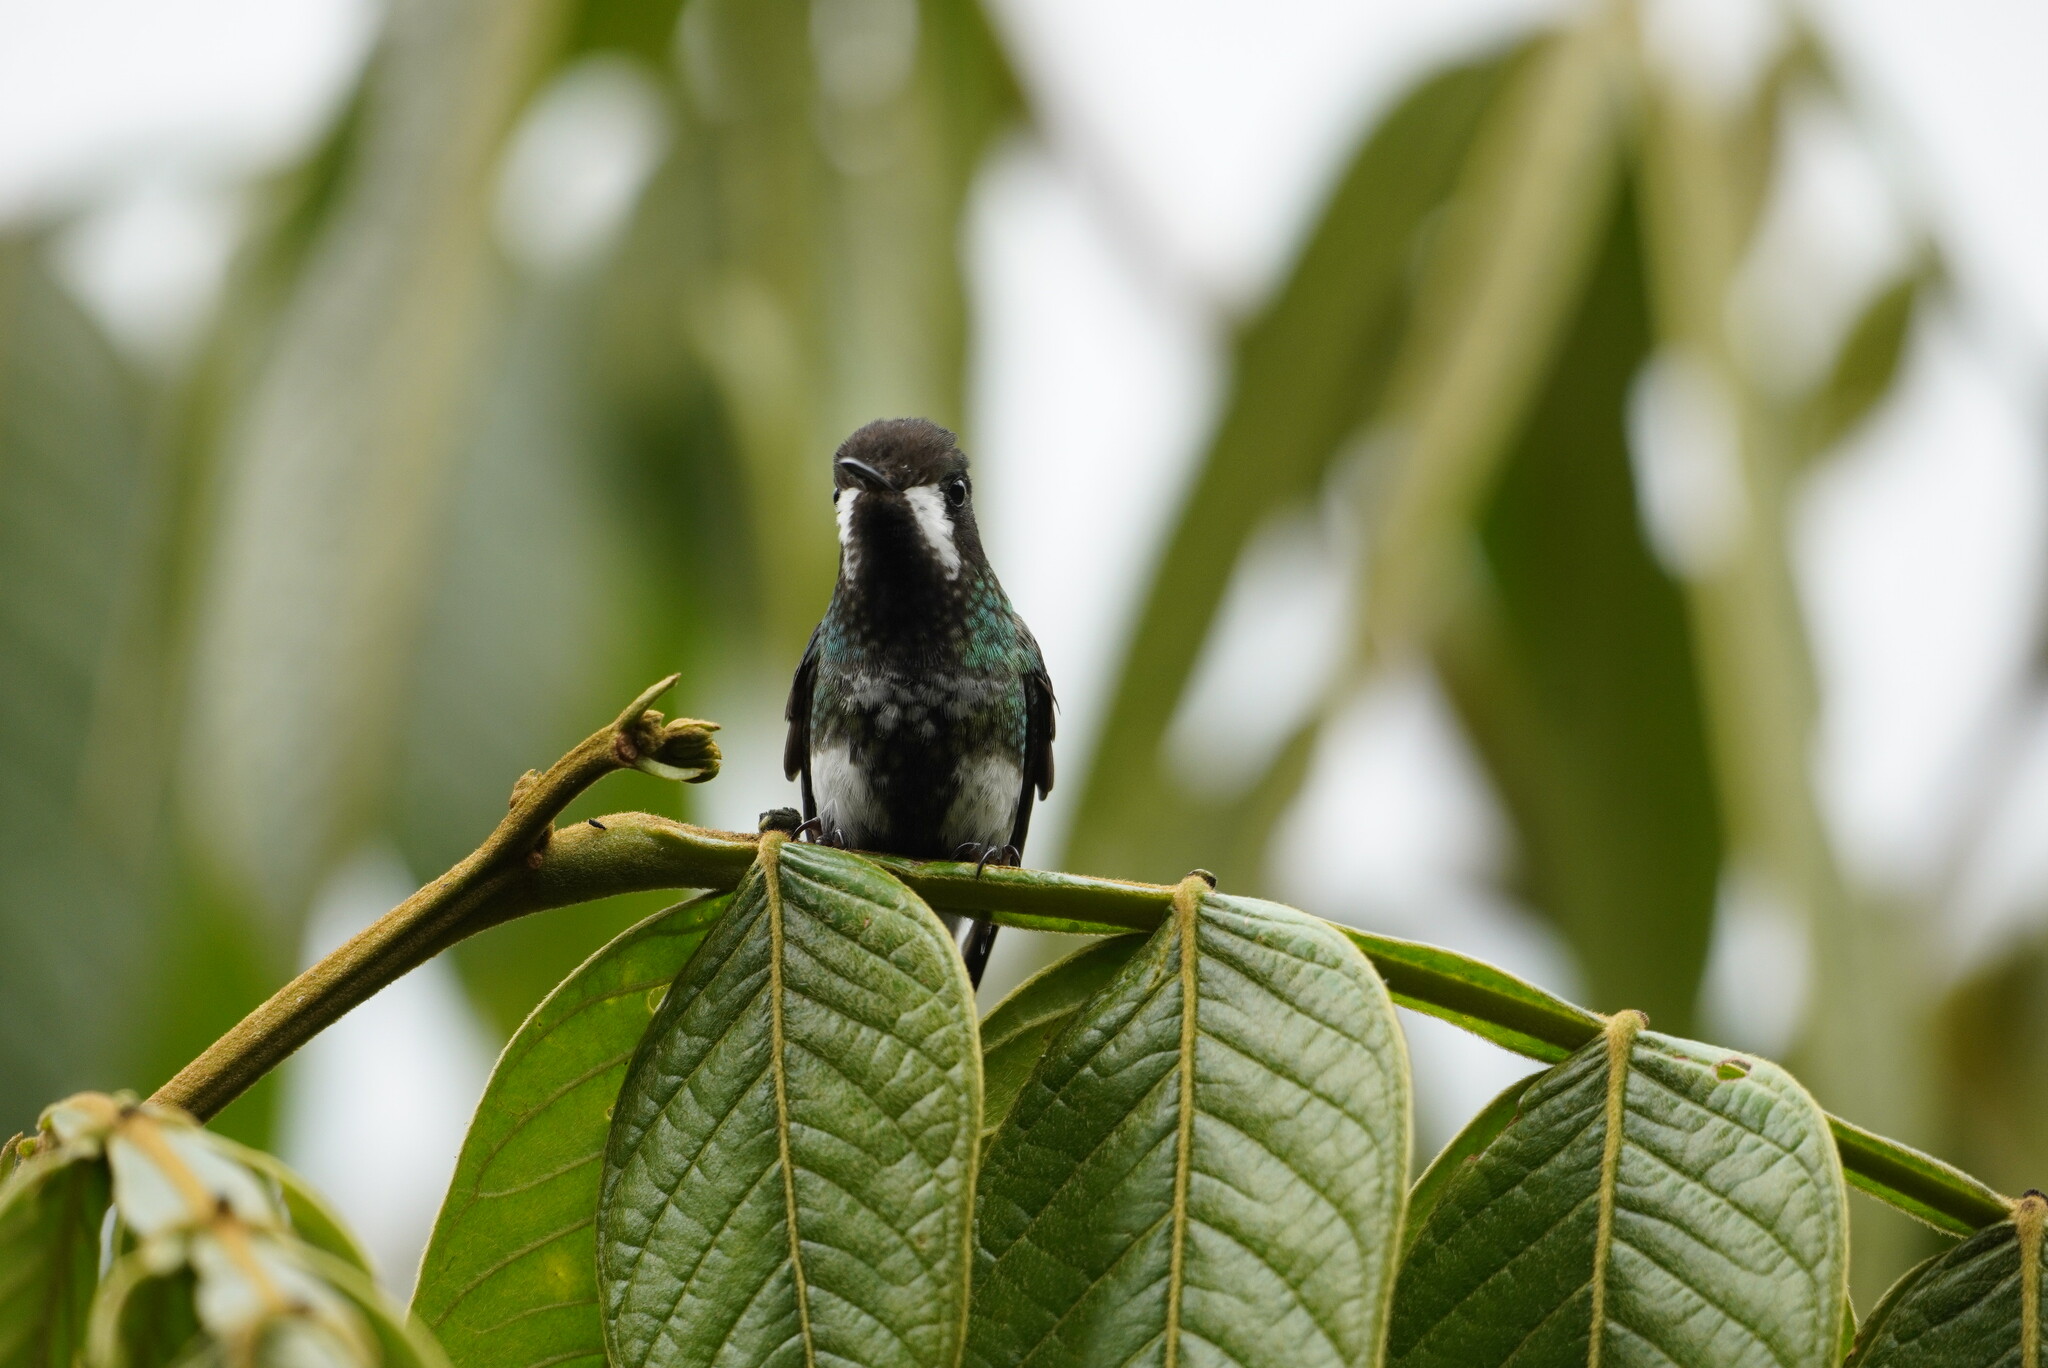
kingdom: Animalia
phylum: Chordata
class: Aves
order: Apodiformes
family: Trochilidae
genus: Discosura
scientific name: Discosura conversii
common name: Green thorntail
